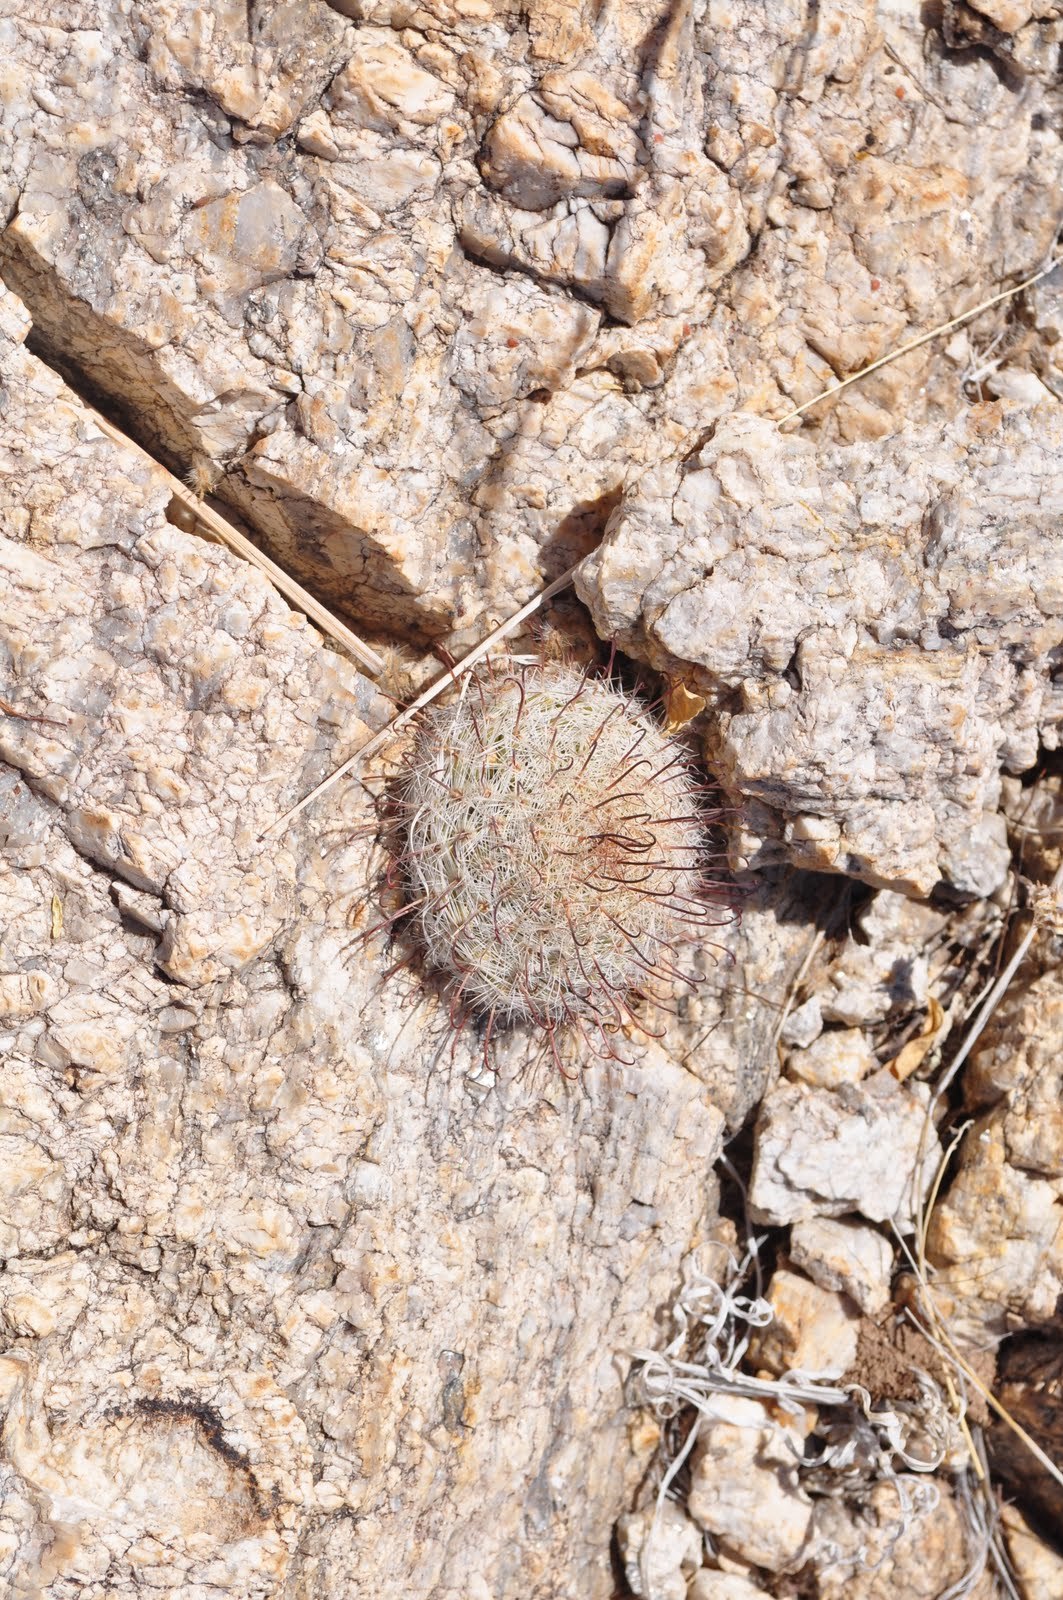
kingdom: Plantae
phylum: Tracheophyta
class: Magnoliopsida
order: Caryophyllales
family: Cactaceae
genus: Cochemiea
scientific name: Cochemiea grahamii
